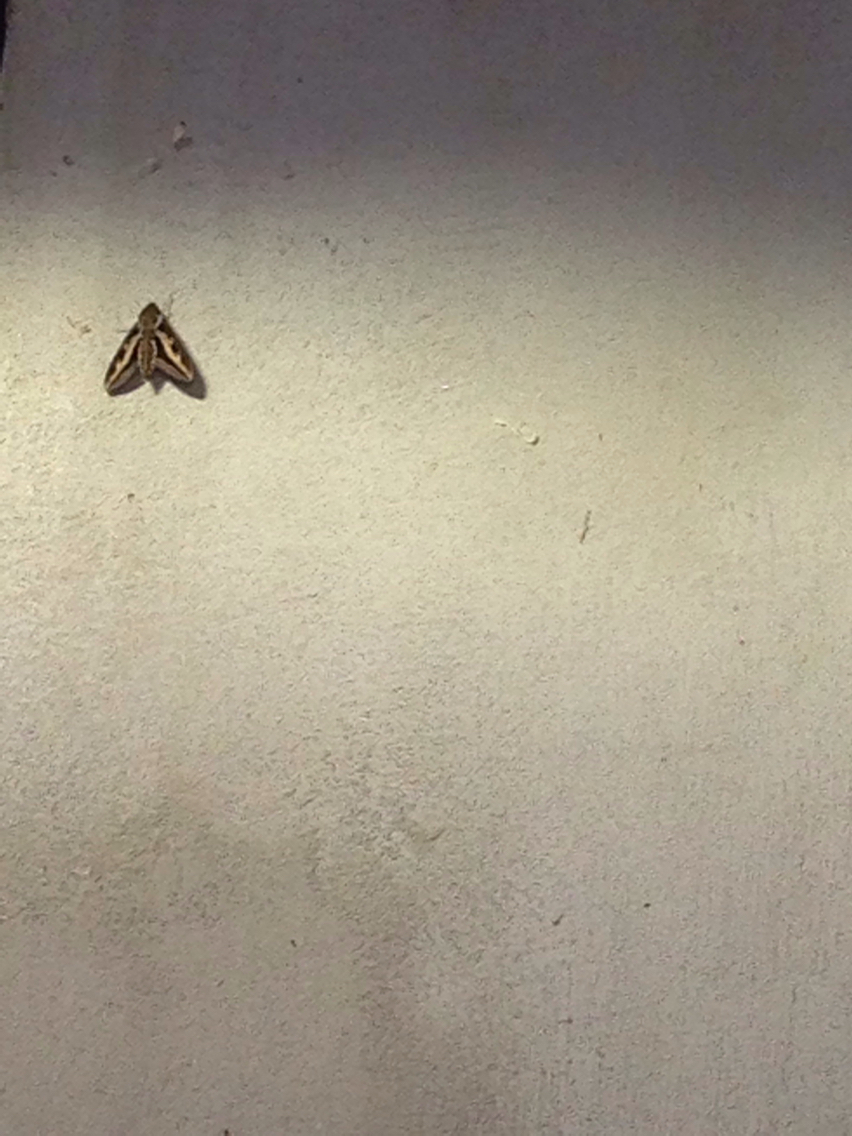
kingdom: Animalia
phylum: Arthropoda
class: Insecta
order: Lepidoptera
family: Sphingidae
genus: Hyles
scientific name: Hyles gallii
